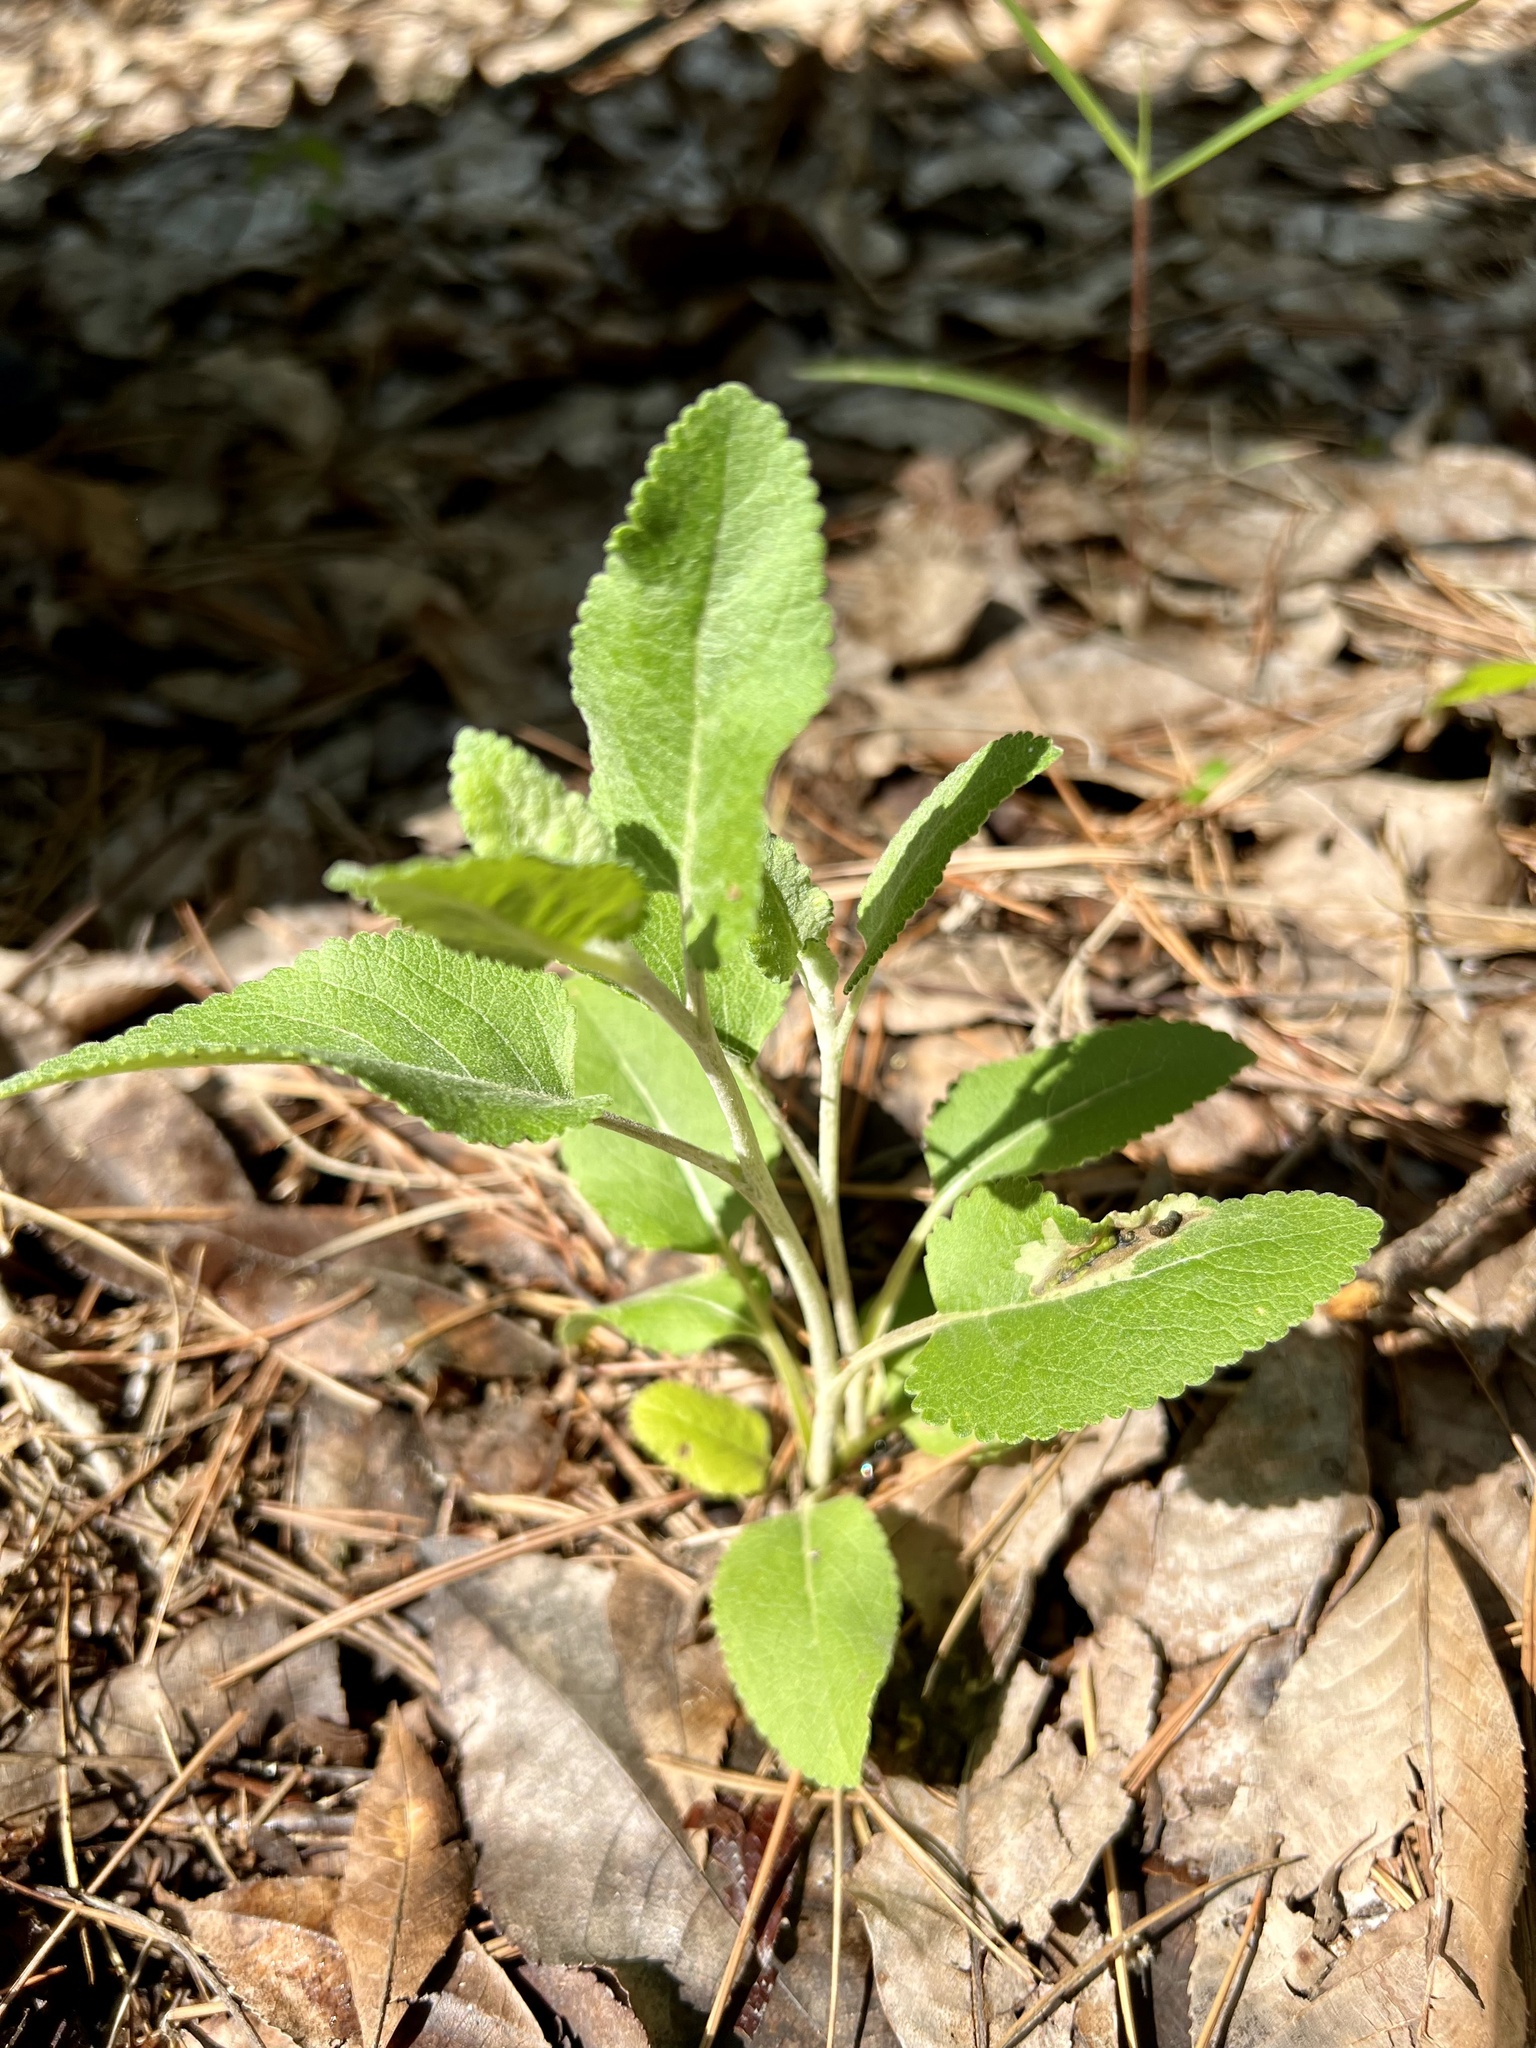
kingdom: Plantae
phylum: Tracheophyta
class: Magnoliopsida
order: Asterales
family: Asteraceae
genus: Berlandiera
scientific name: Berlandiera pumila
